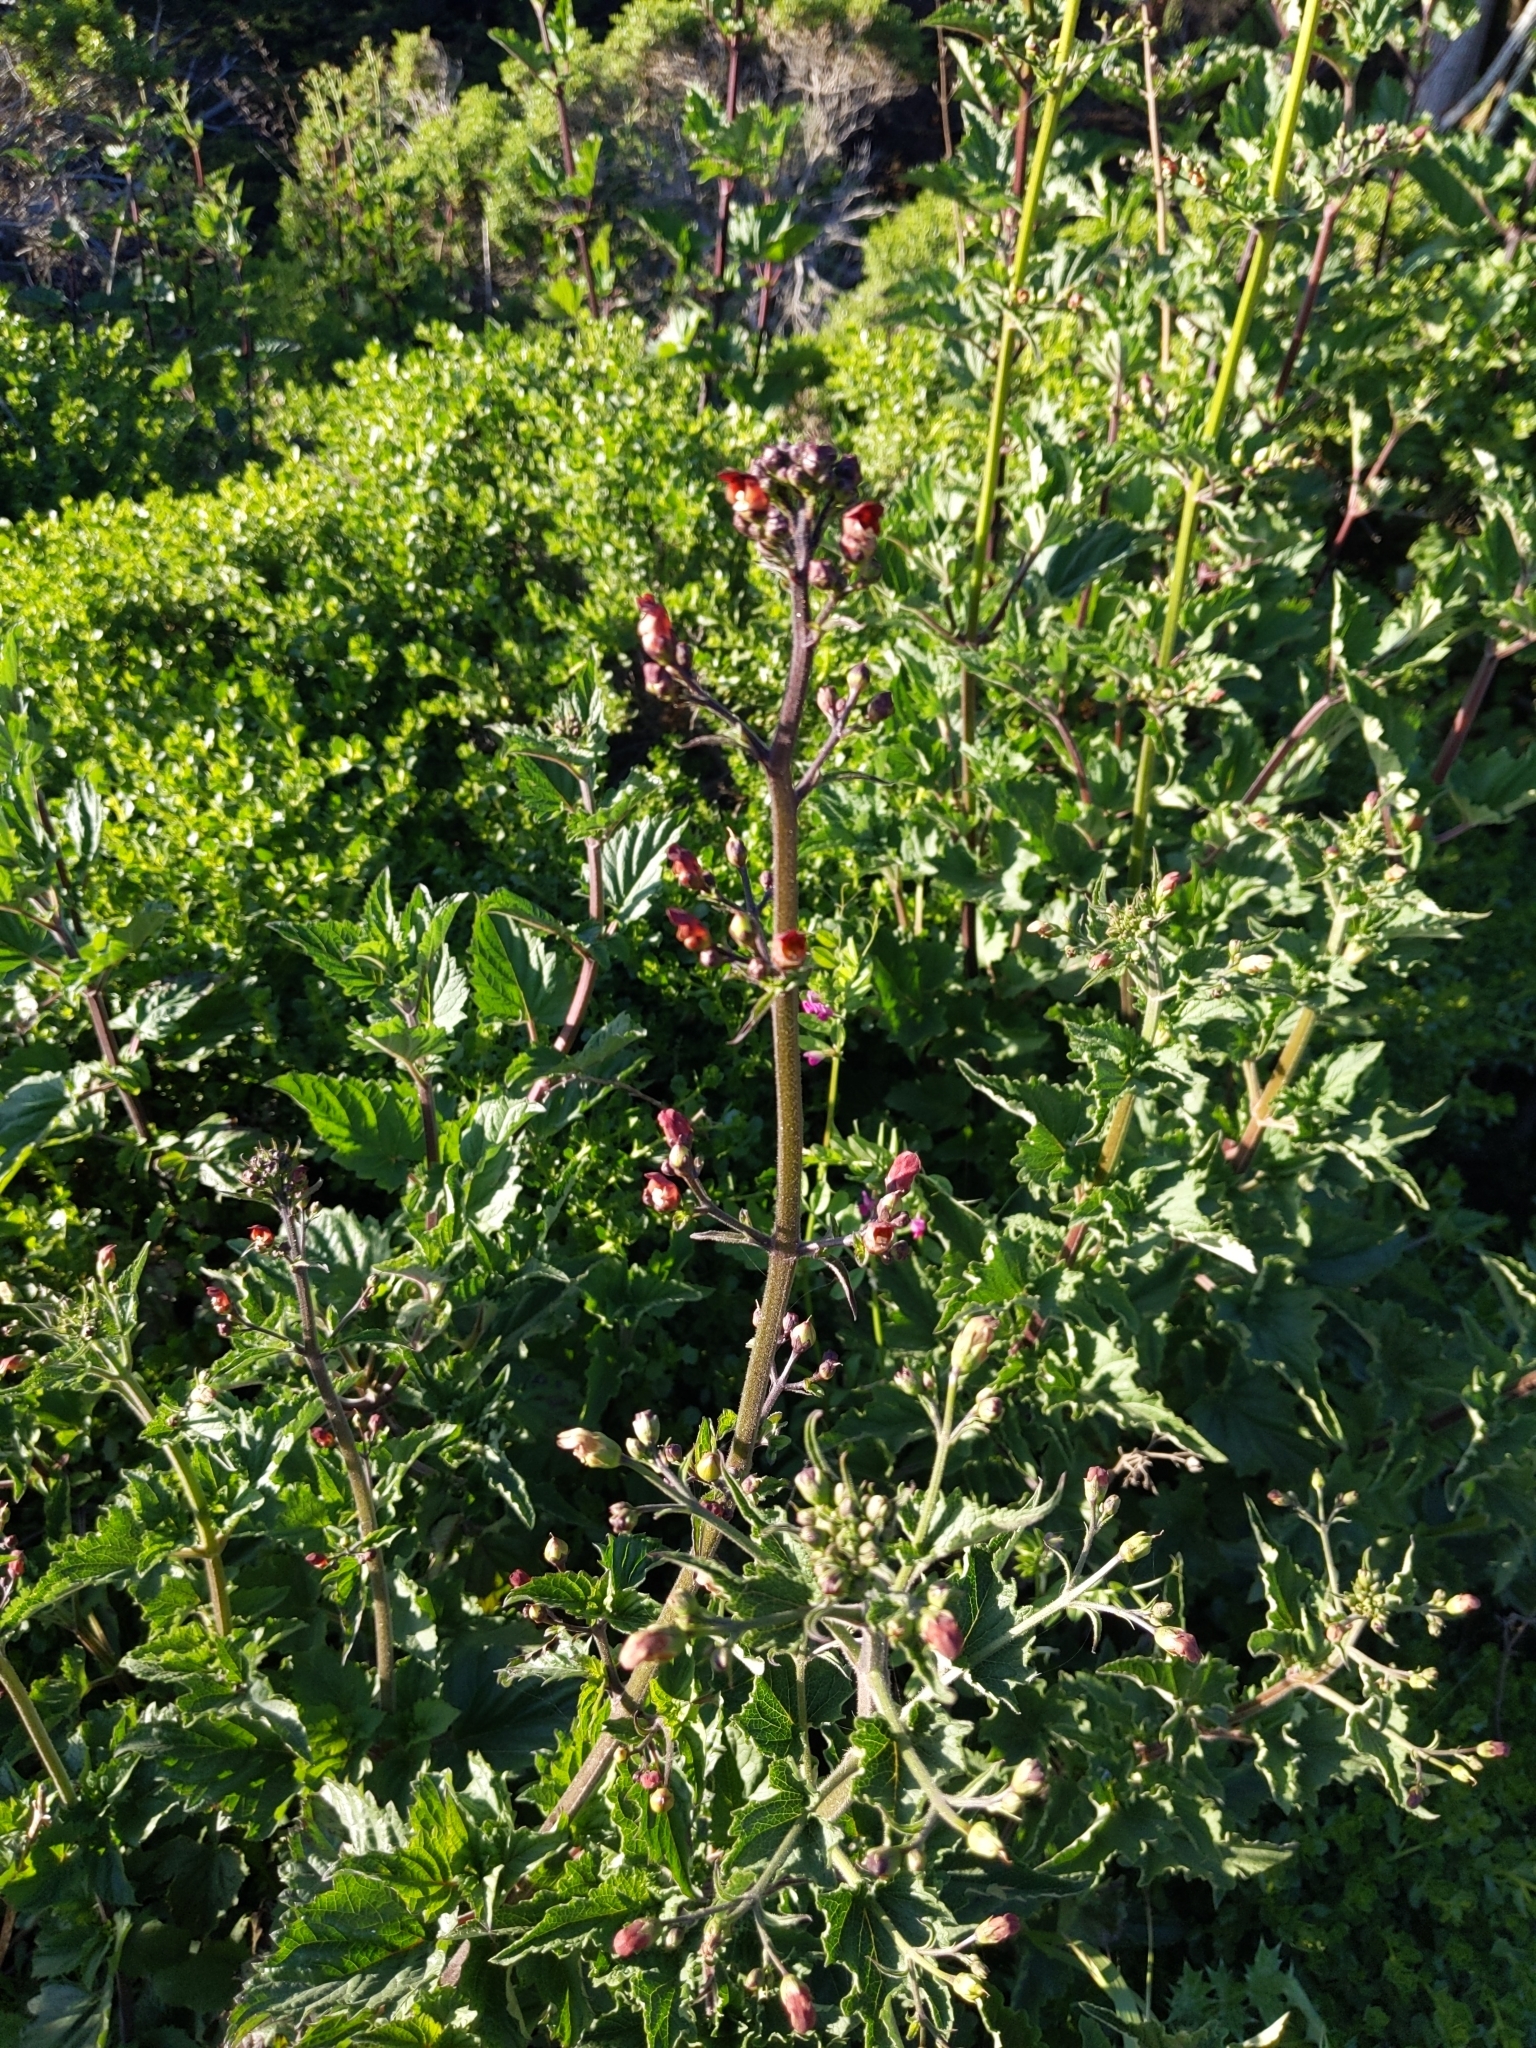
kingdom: Plantae
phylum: Tracheophyta
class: Magnoliopsida
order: Lamiales
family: Scrophulariaceae
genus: Scrophularia
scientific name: Scrophularia californica
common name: California figwort
